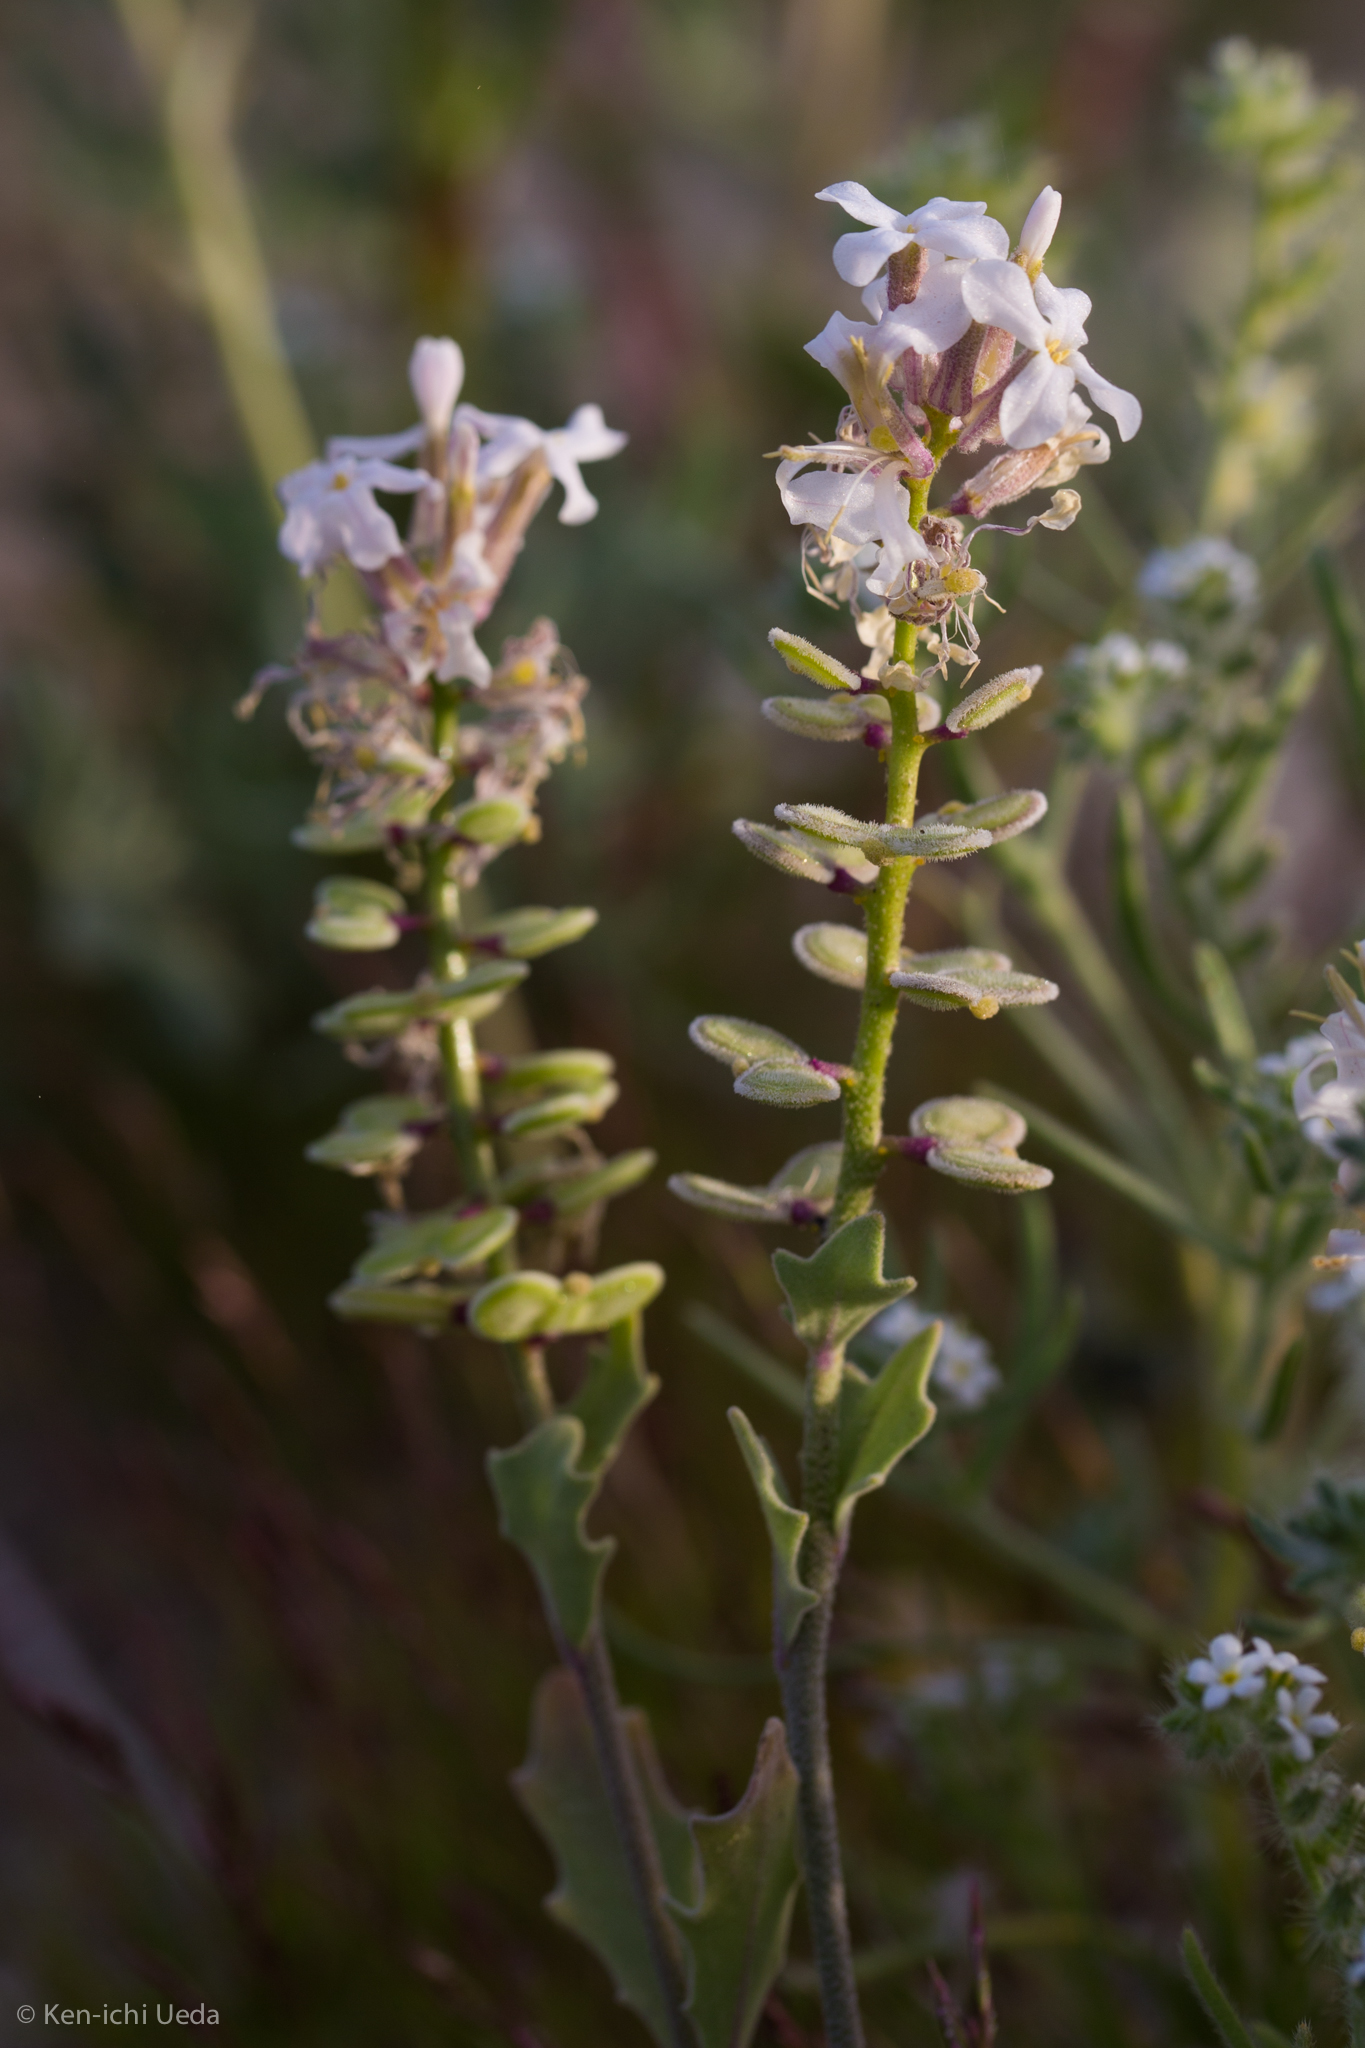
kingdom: Plantae
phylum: Tracheophyta
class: Magnoliopsida
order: Brassicales
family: Brassicaceae
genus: Dithyrea
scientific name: Dithyrea californica
